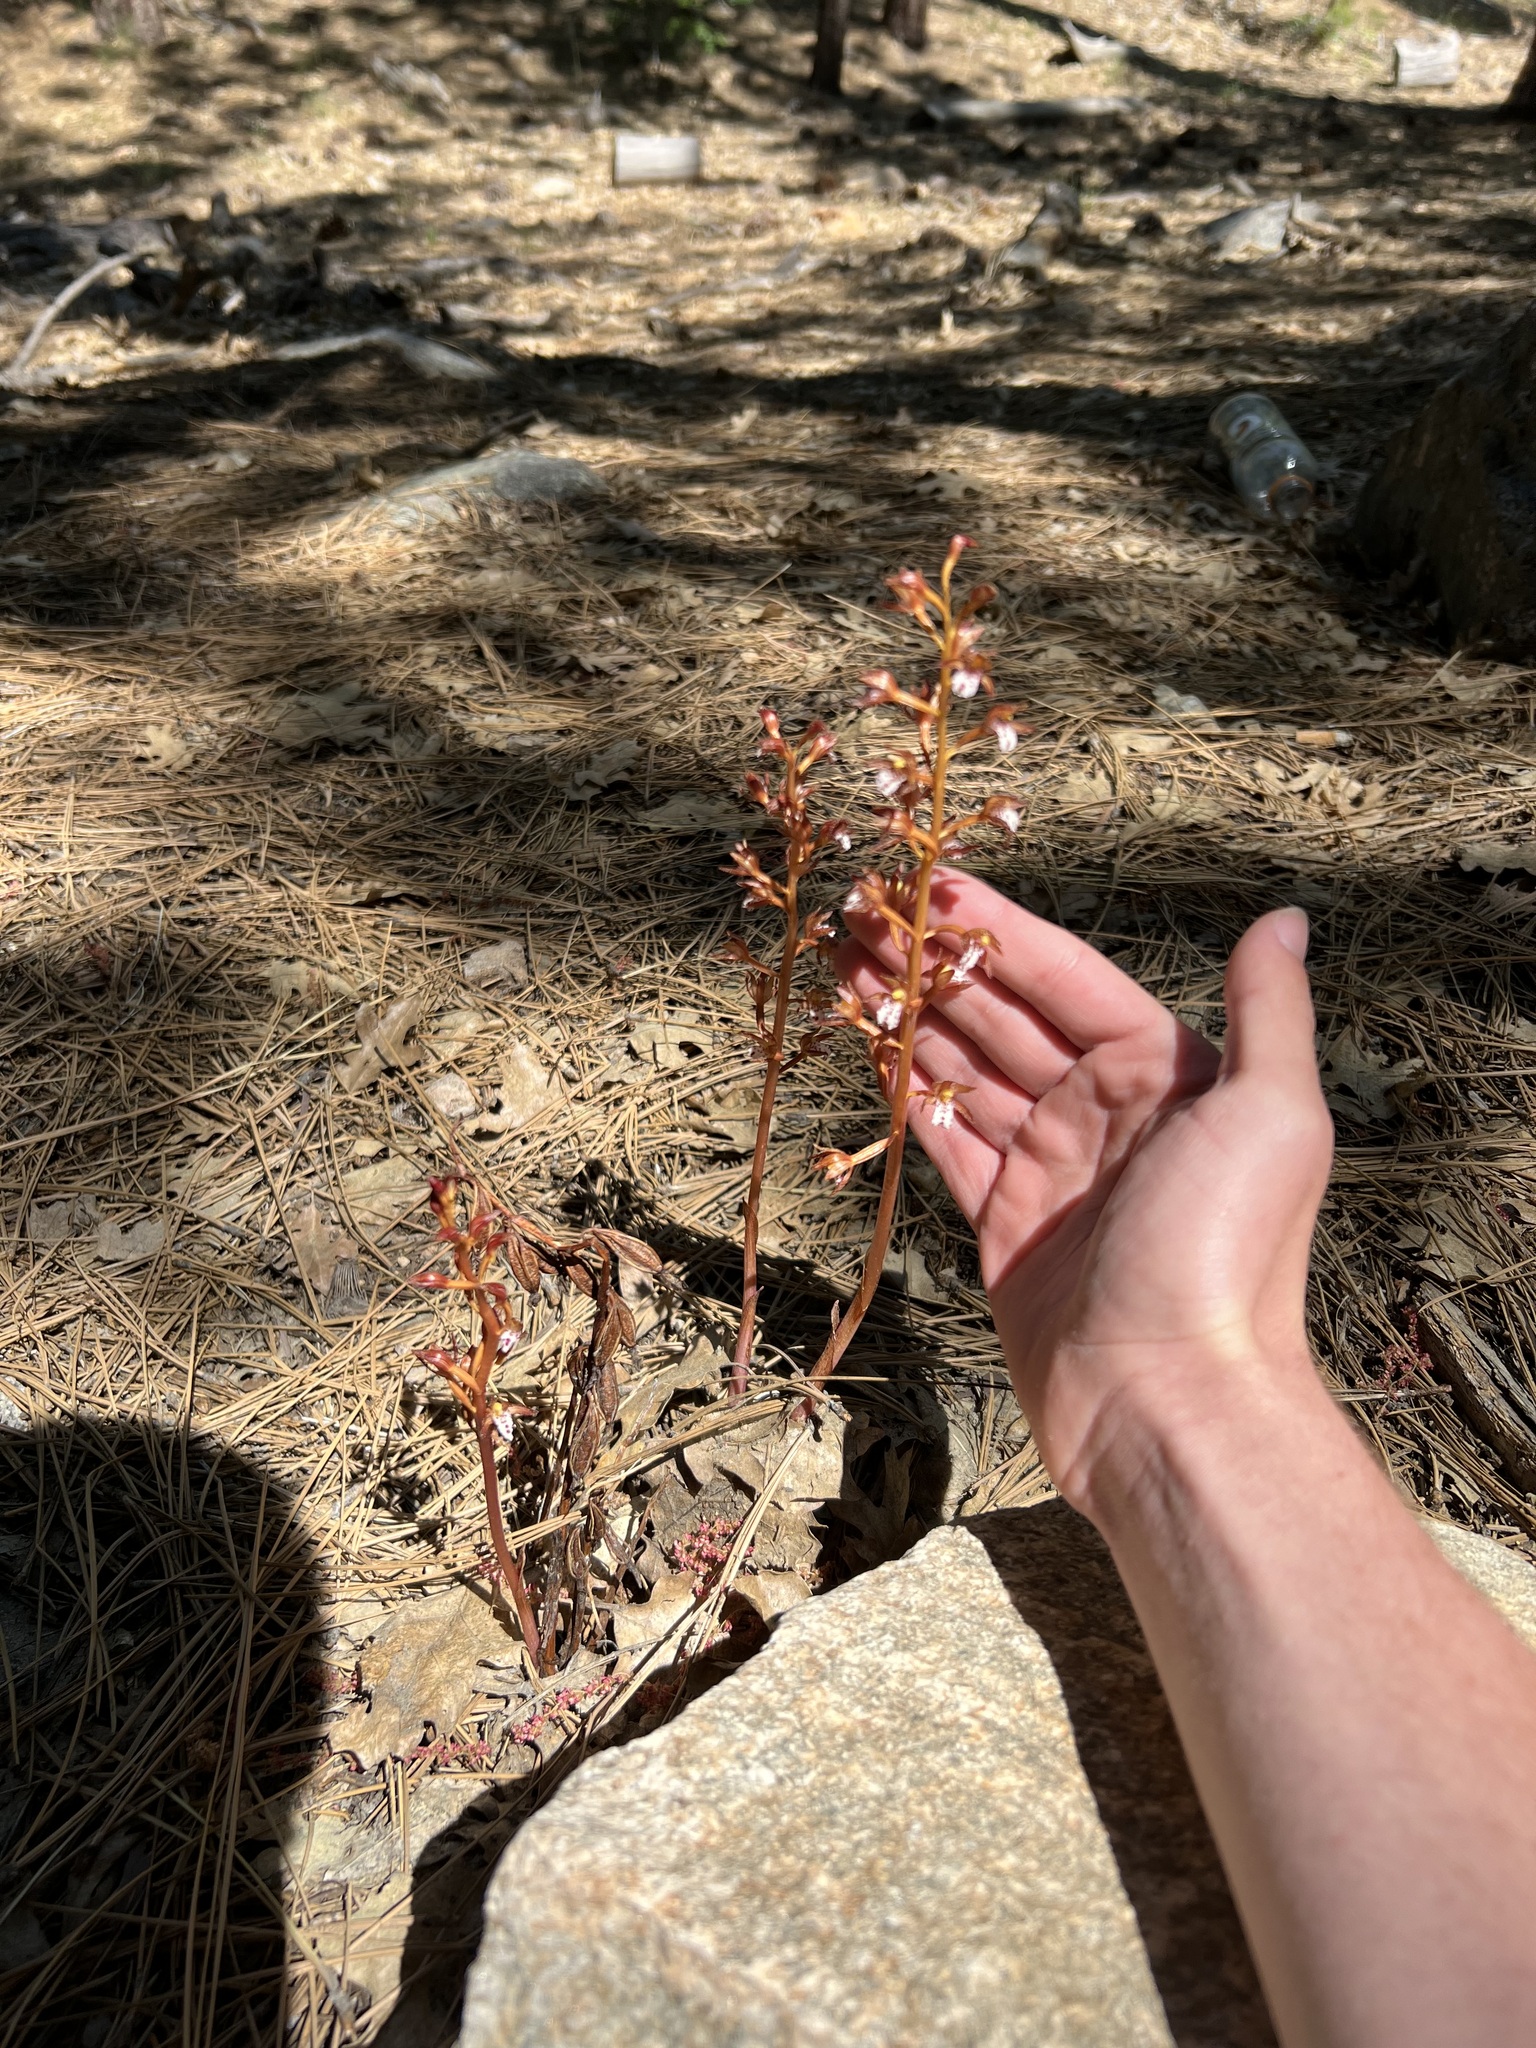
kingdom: Plantae
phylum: Tracheophyta
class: Liliopsida
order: Asparagales
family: Orchidaceae
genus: Corallorhiza
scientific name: Corallorhiza maculata
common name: Spotted coralroot
